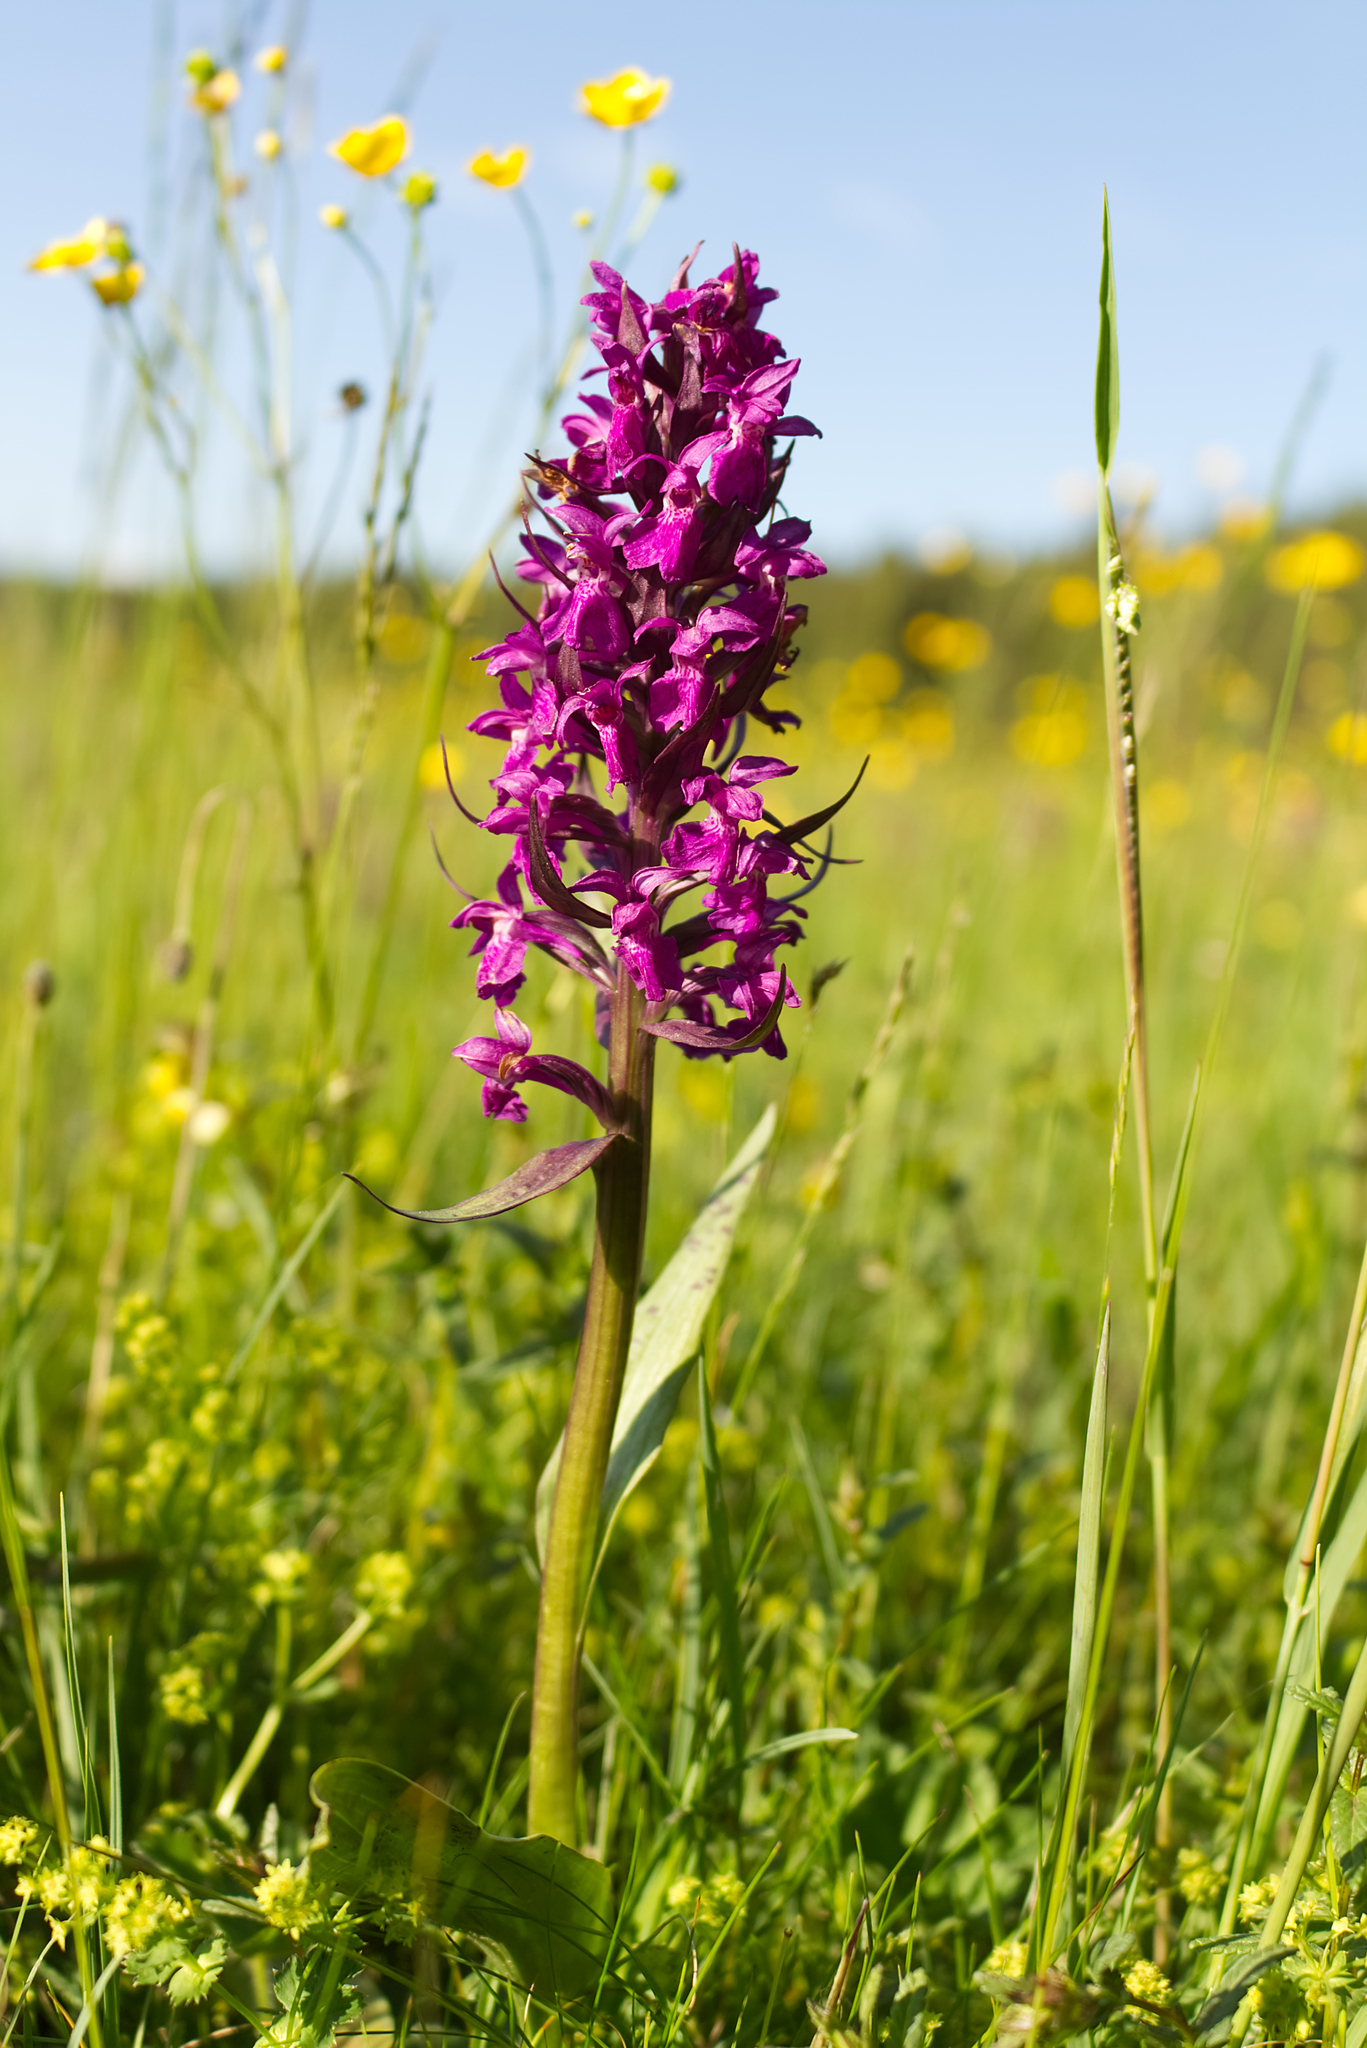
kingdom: Plantae
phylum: Tracheophyta
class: Liliopsida
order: Asparagales
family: Orchidaceae
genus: Dactylorhiza
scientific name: Dactylorhiza majalis
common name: Marsh orchid
